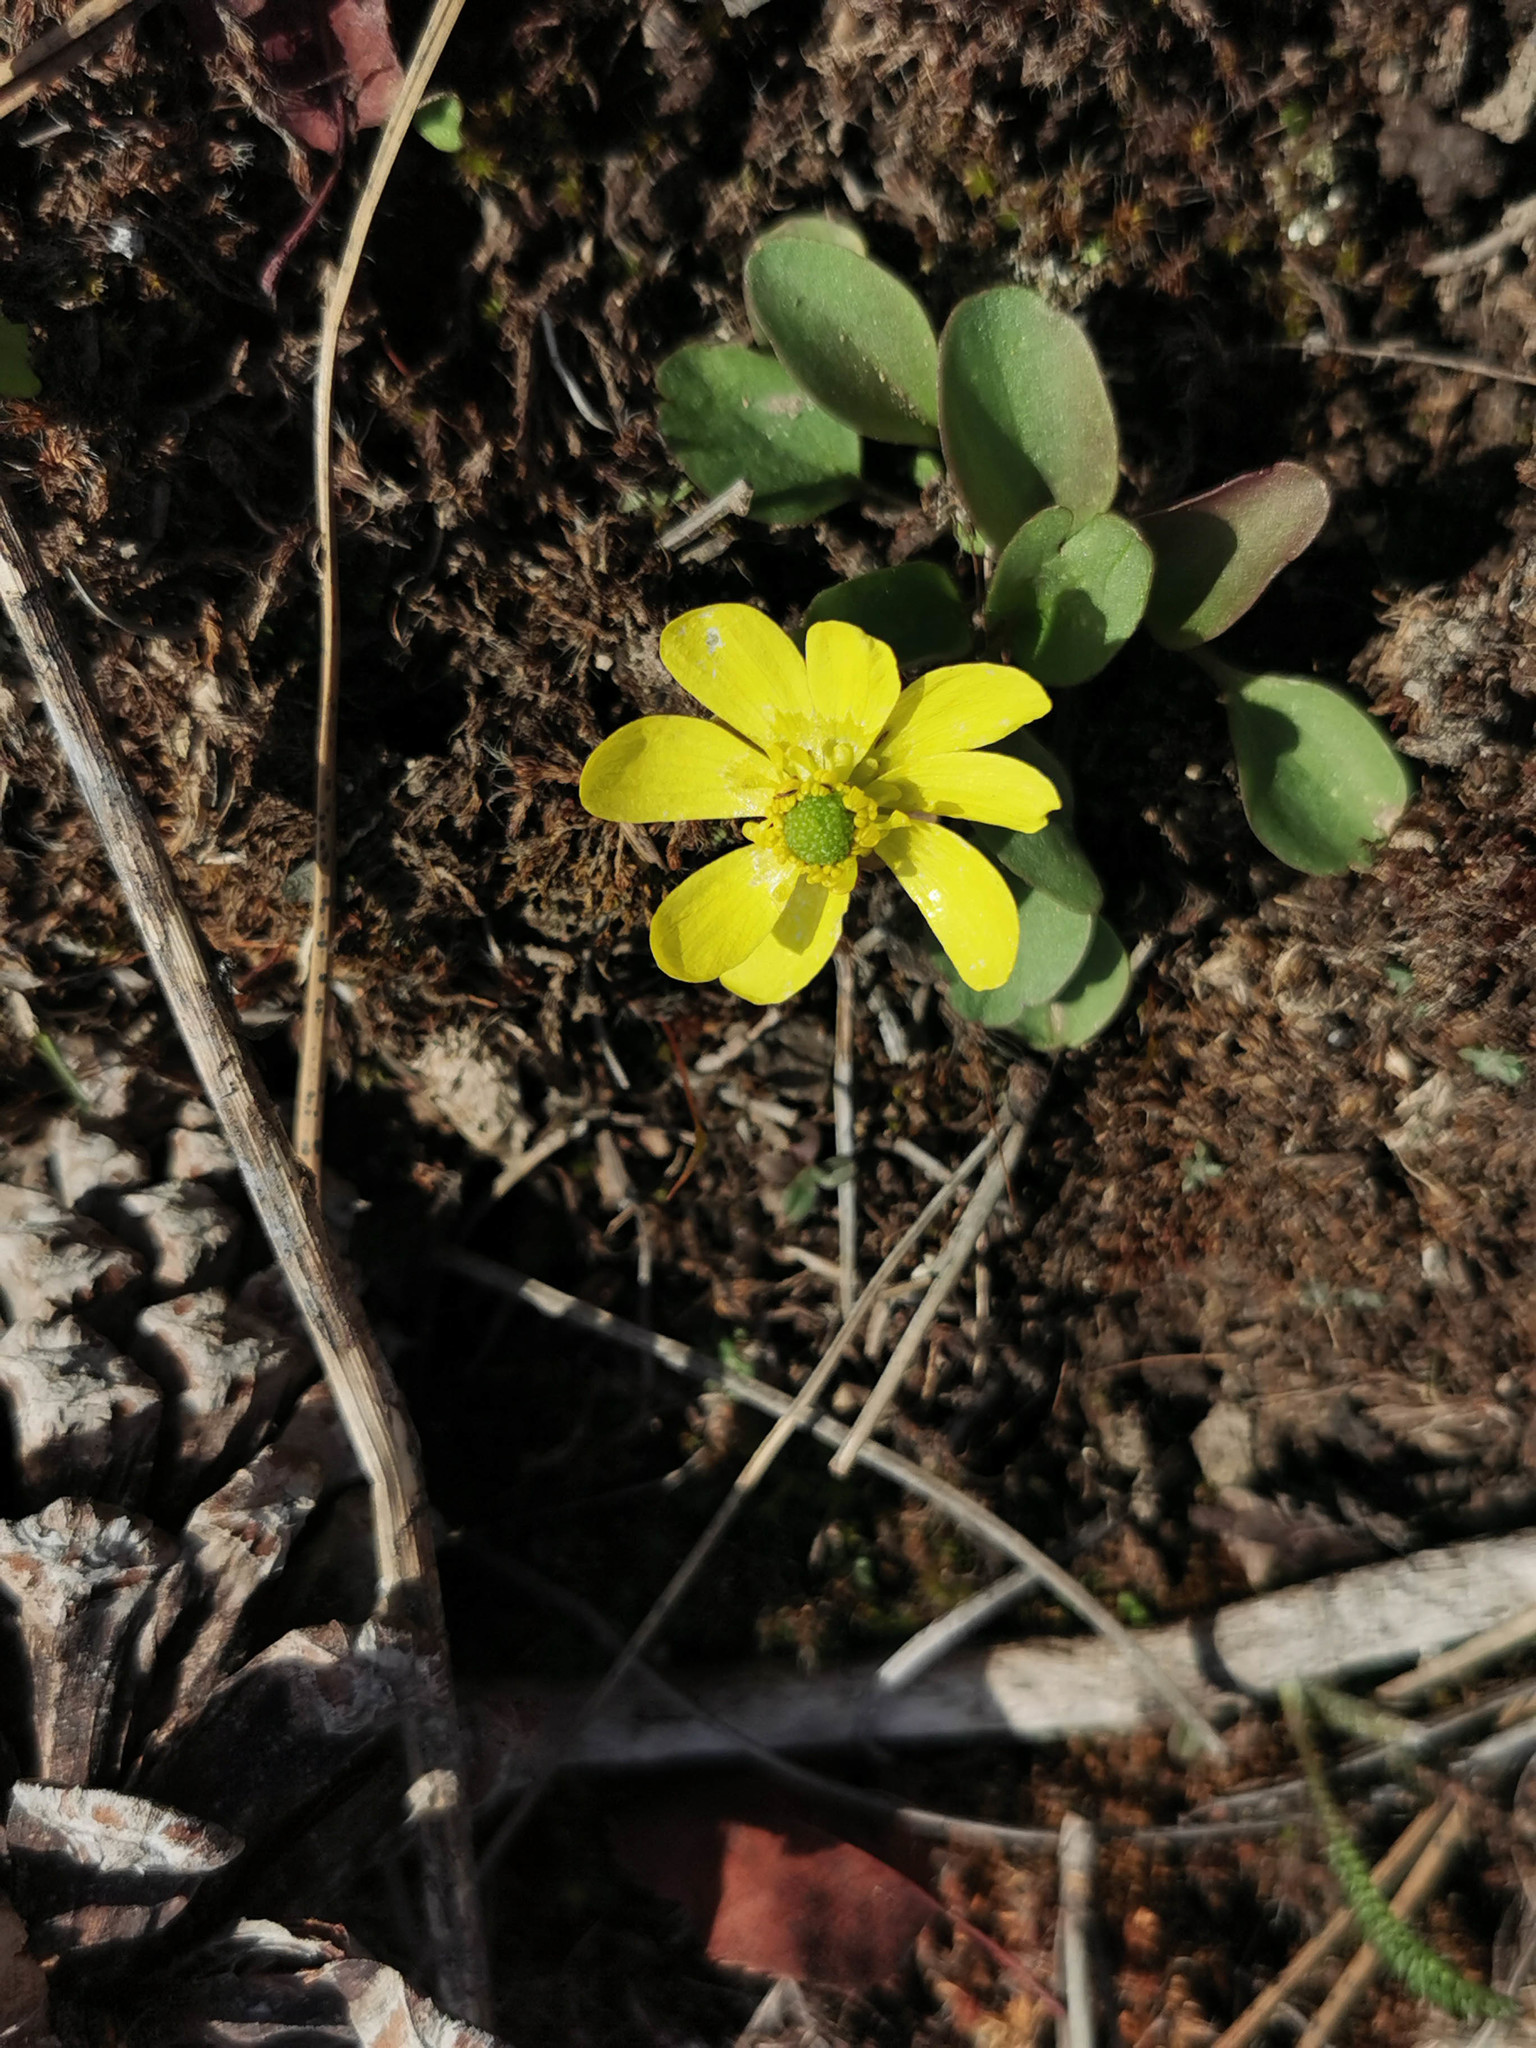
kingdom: Plantae
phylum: Tracheophyta
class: Magnoliopsida
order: Ranunculales
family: Ranunculaceae
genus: Ranunculus
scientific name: Ranunculus glaberrimus
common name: Sagebrush buttercup
